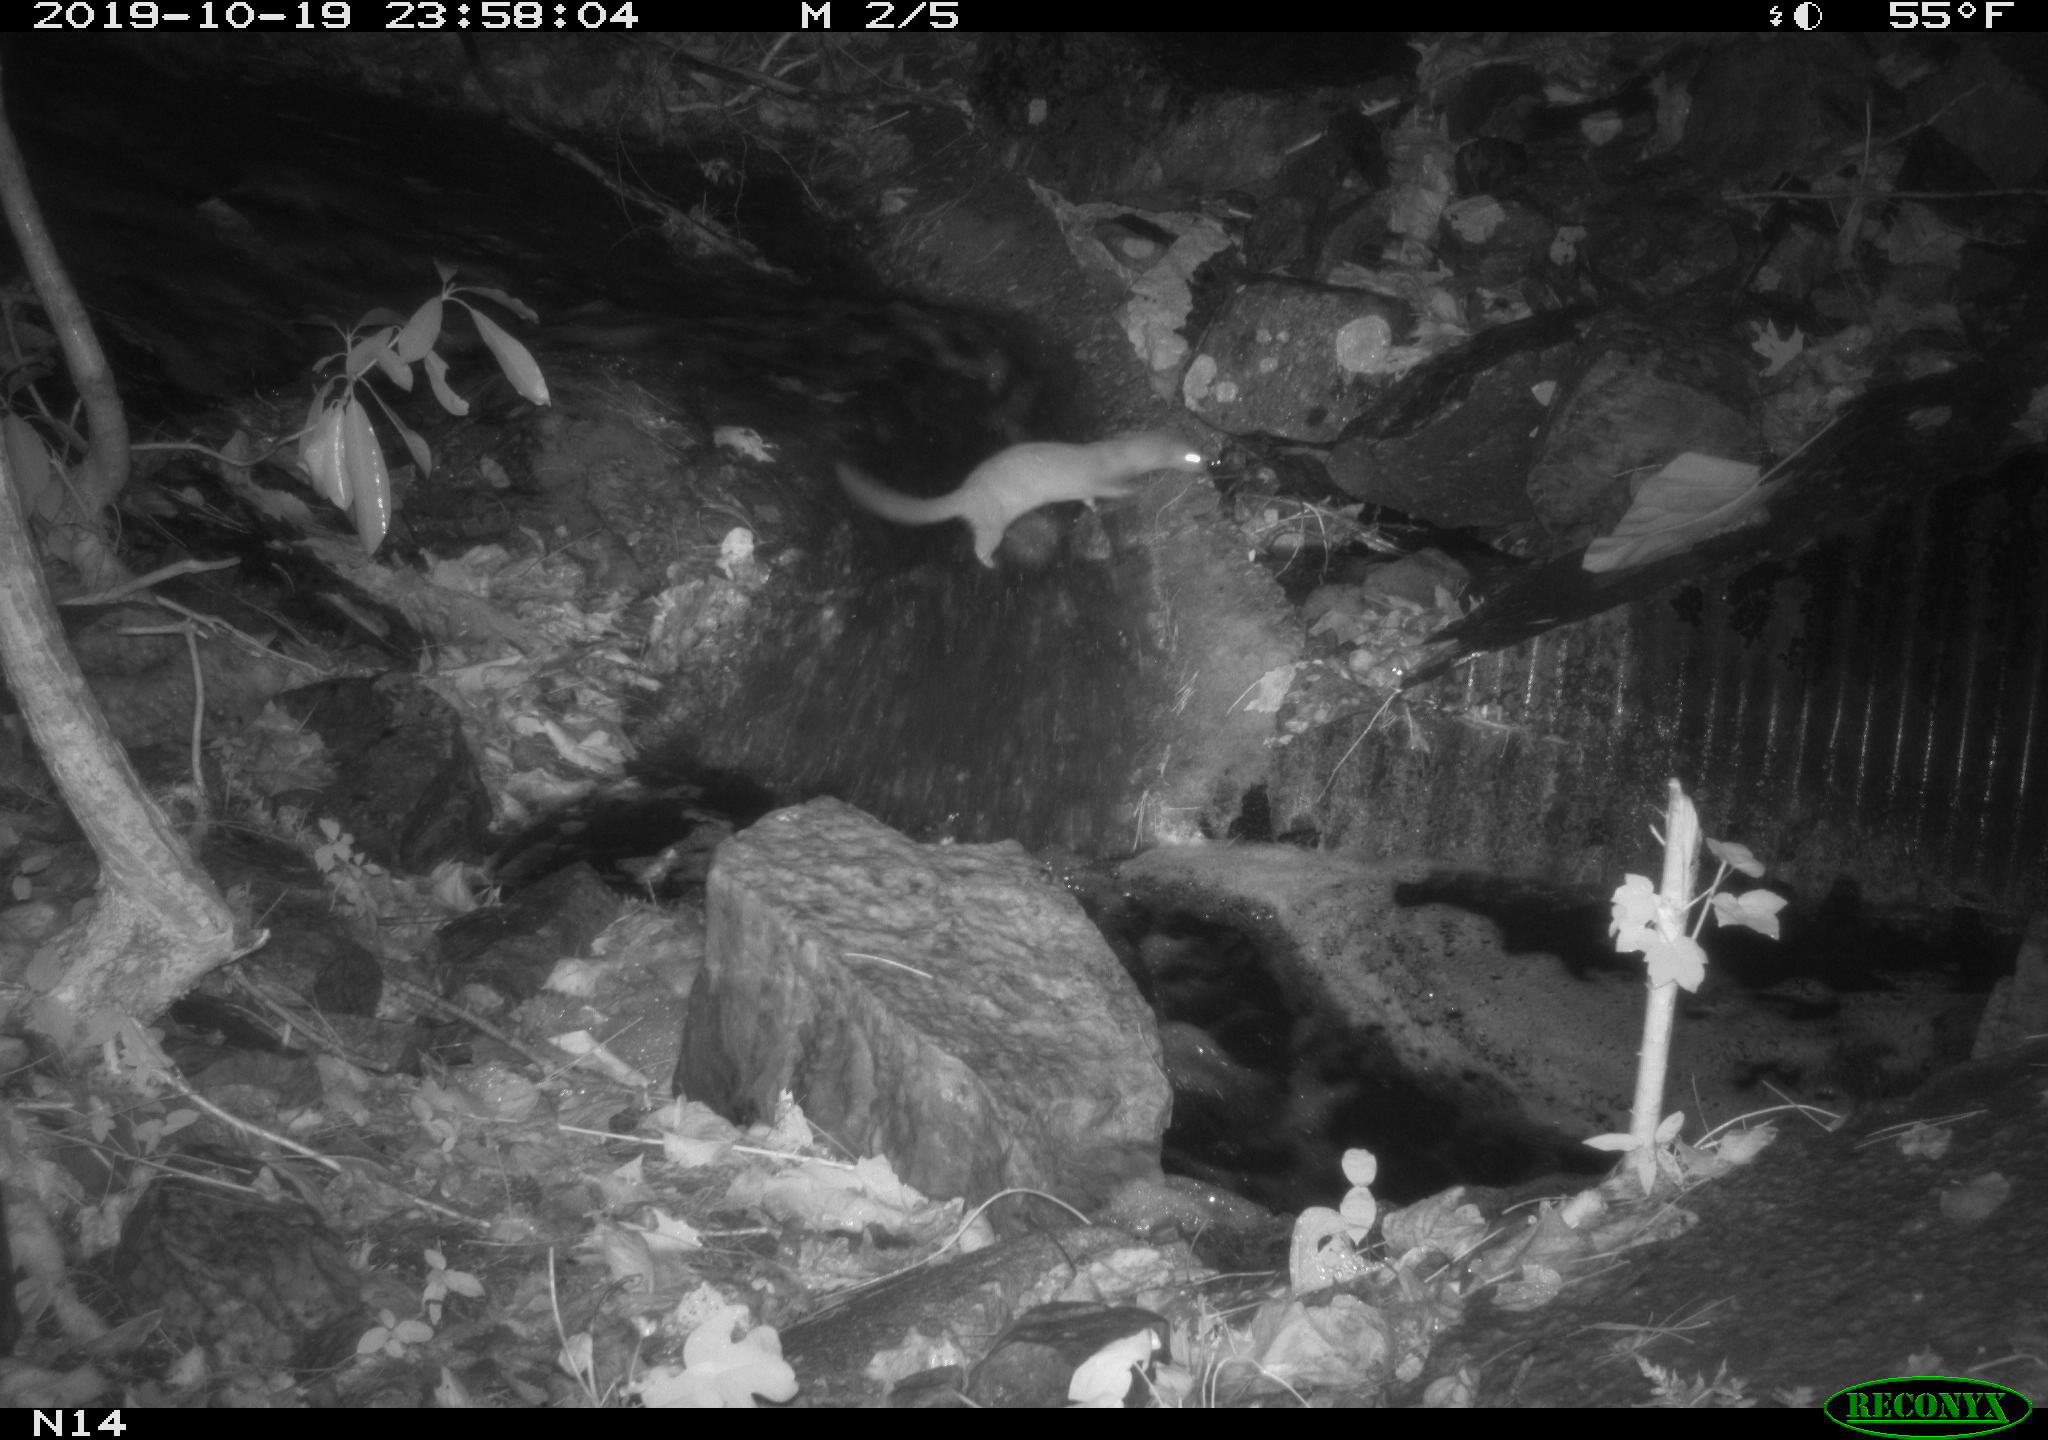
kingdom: Animalia
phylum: Chordata
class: Mammalia
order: Carnivora
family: Mustelidae
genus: Mustela
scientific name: Mustela
